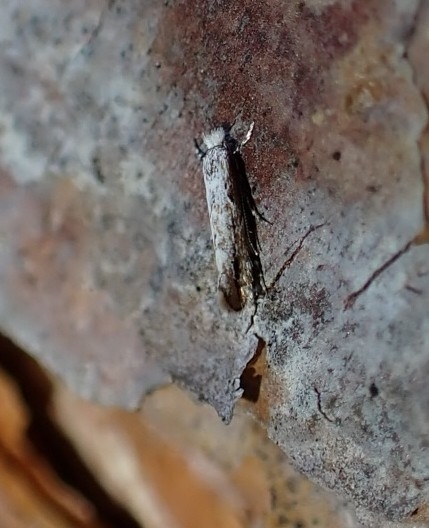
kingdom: Animalia
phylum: Arthropoda
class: Insecta
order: Lepidoptera
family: Gracillariidae
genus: Phyllonorycter
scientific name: Phyllonorycter issikii
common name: Linden midget
